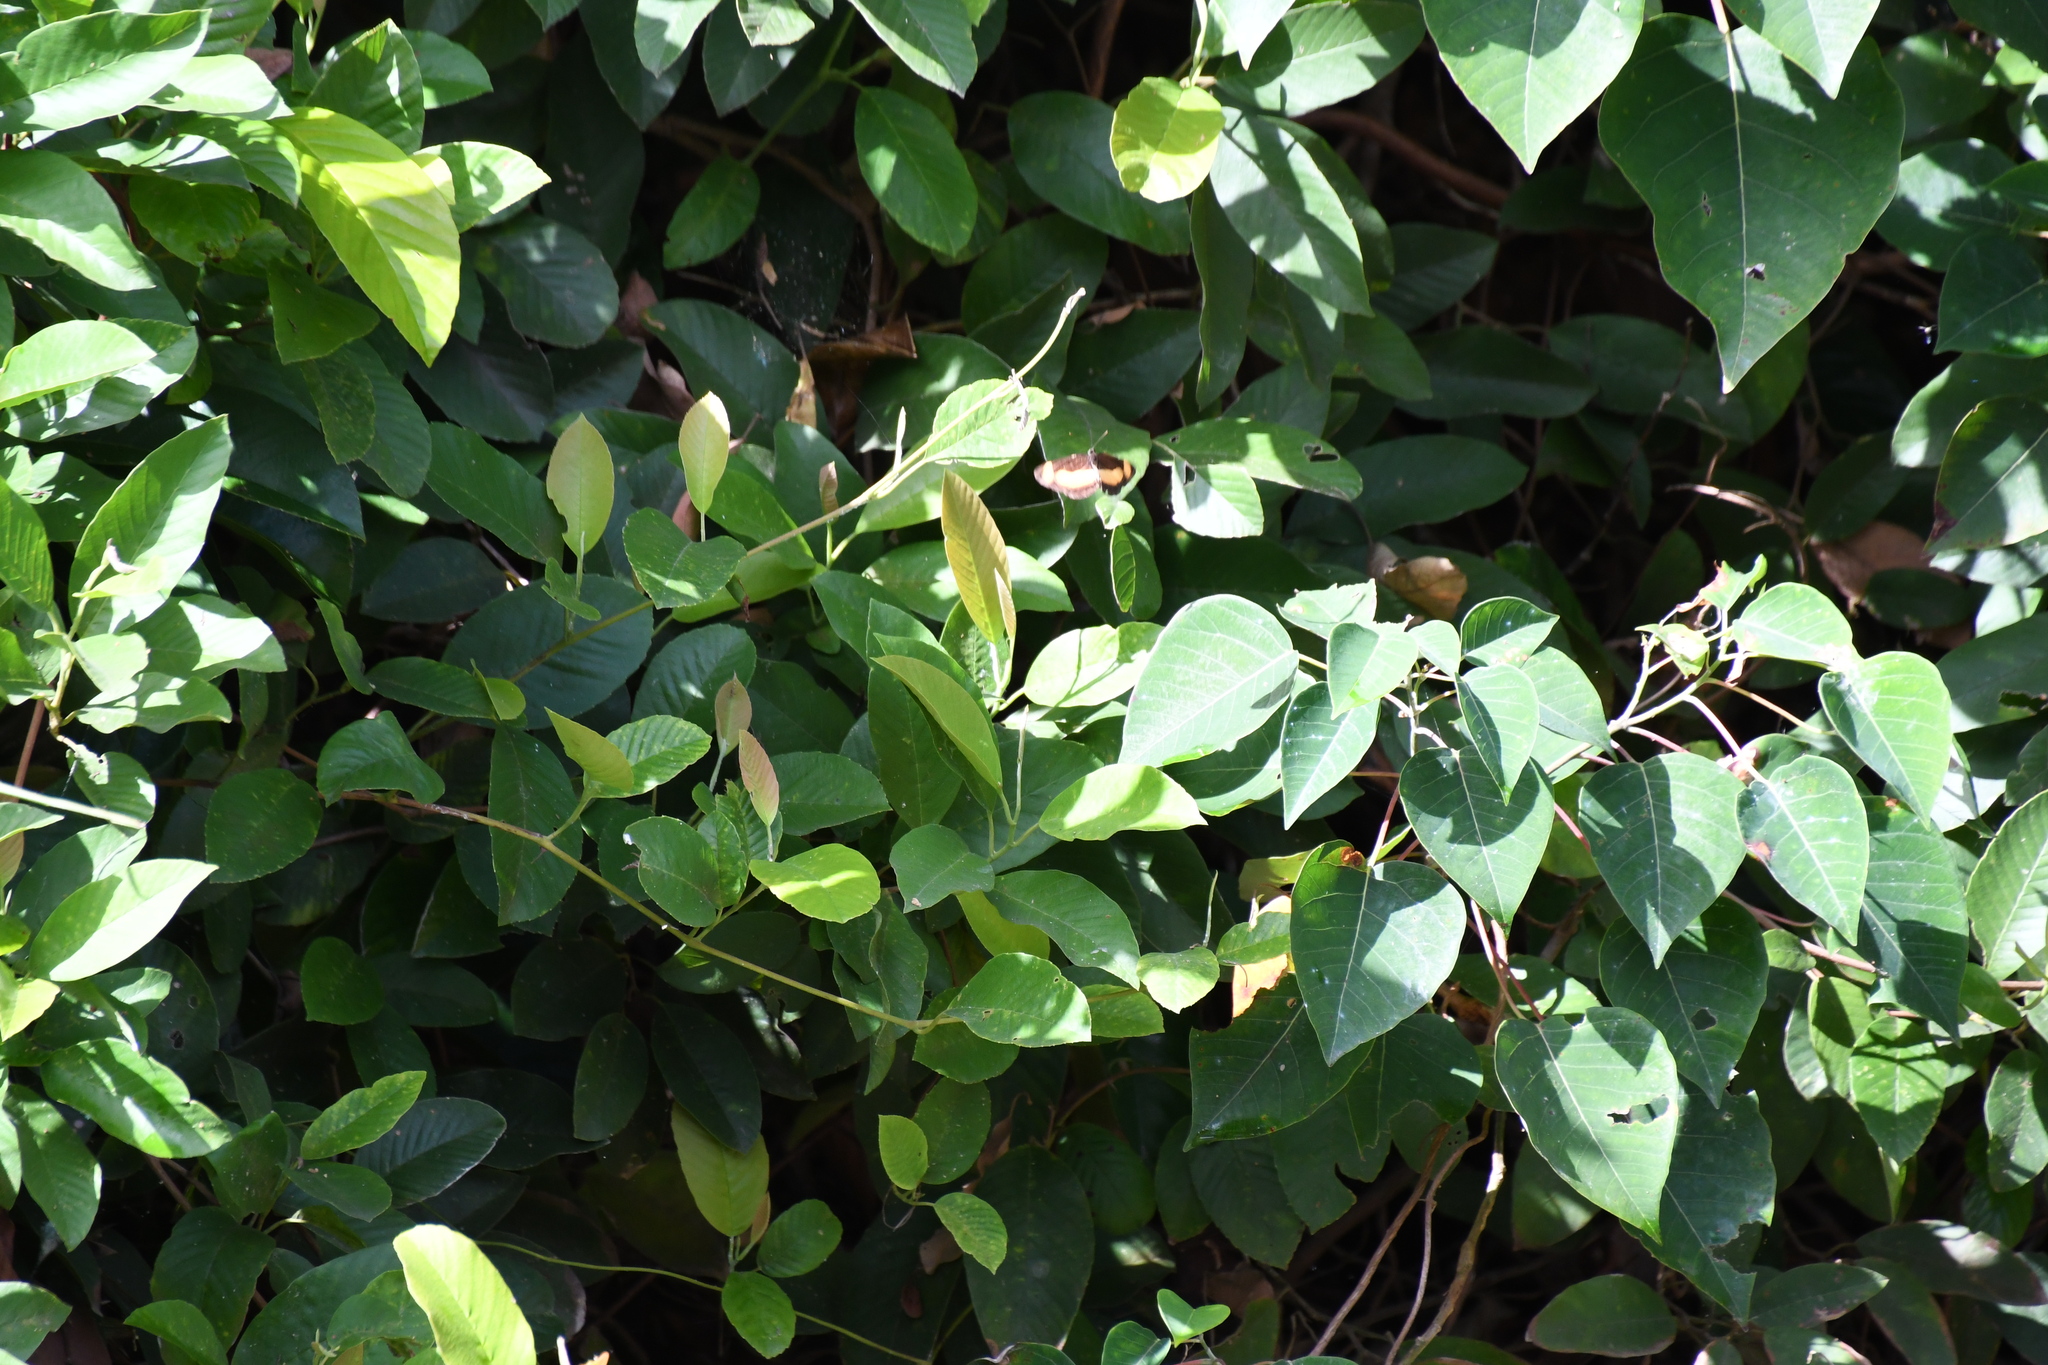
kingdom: Animalia
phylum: Arthropoda
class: Insecta
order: Lepidoptera
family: Nymphalidae
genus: Pantoporia
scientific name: Pantoporia consimilis
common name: Orange plane
